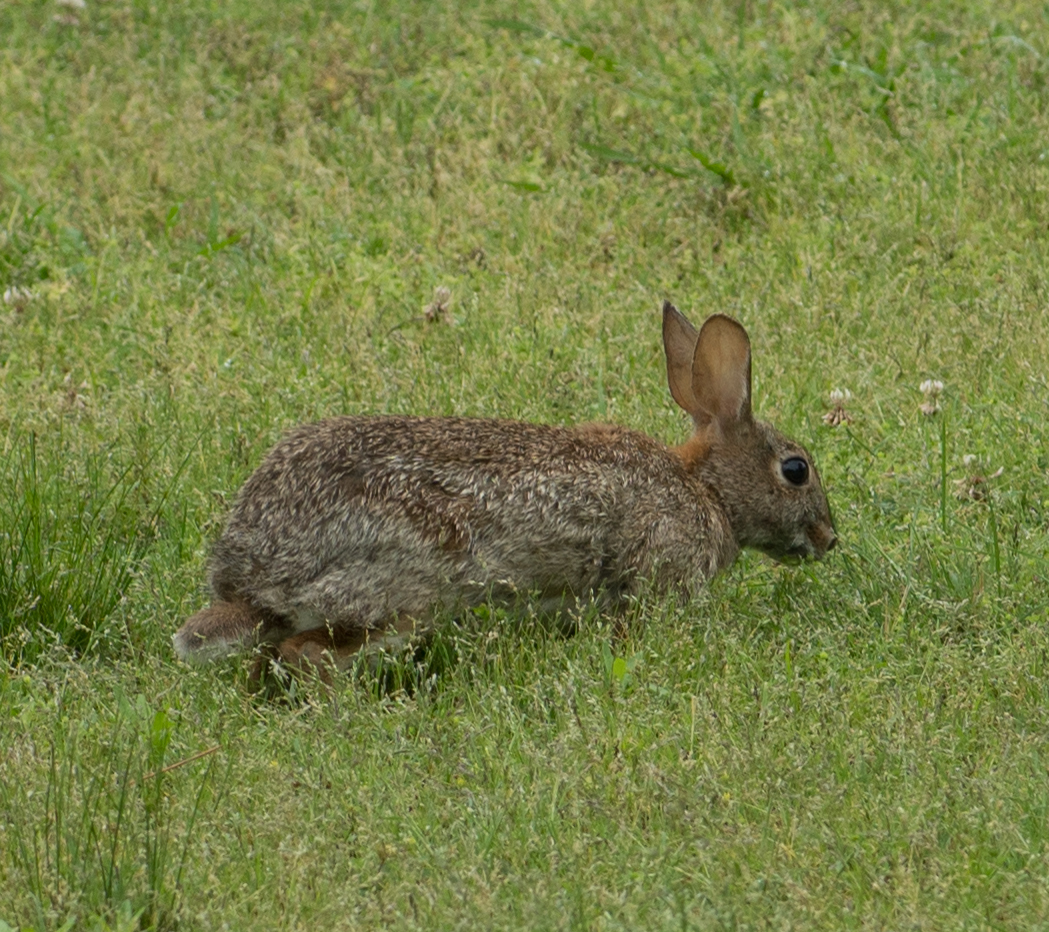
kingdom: Animalia
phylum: Chordata
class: Mammalia
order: Lagomorpha
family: Leporidae
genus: Sylvilagus
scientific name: Sylvilagus floridanus
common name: Eastern cottontail
